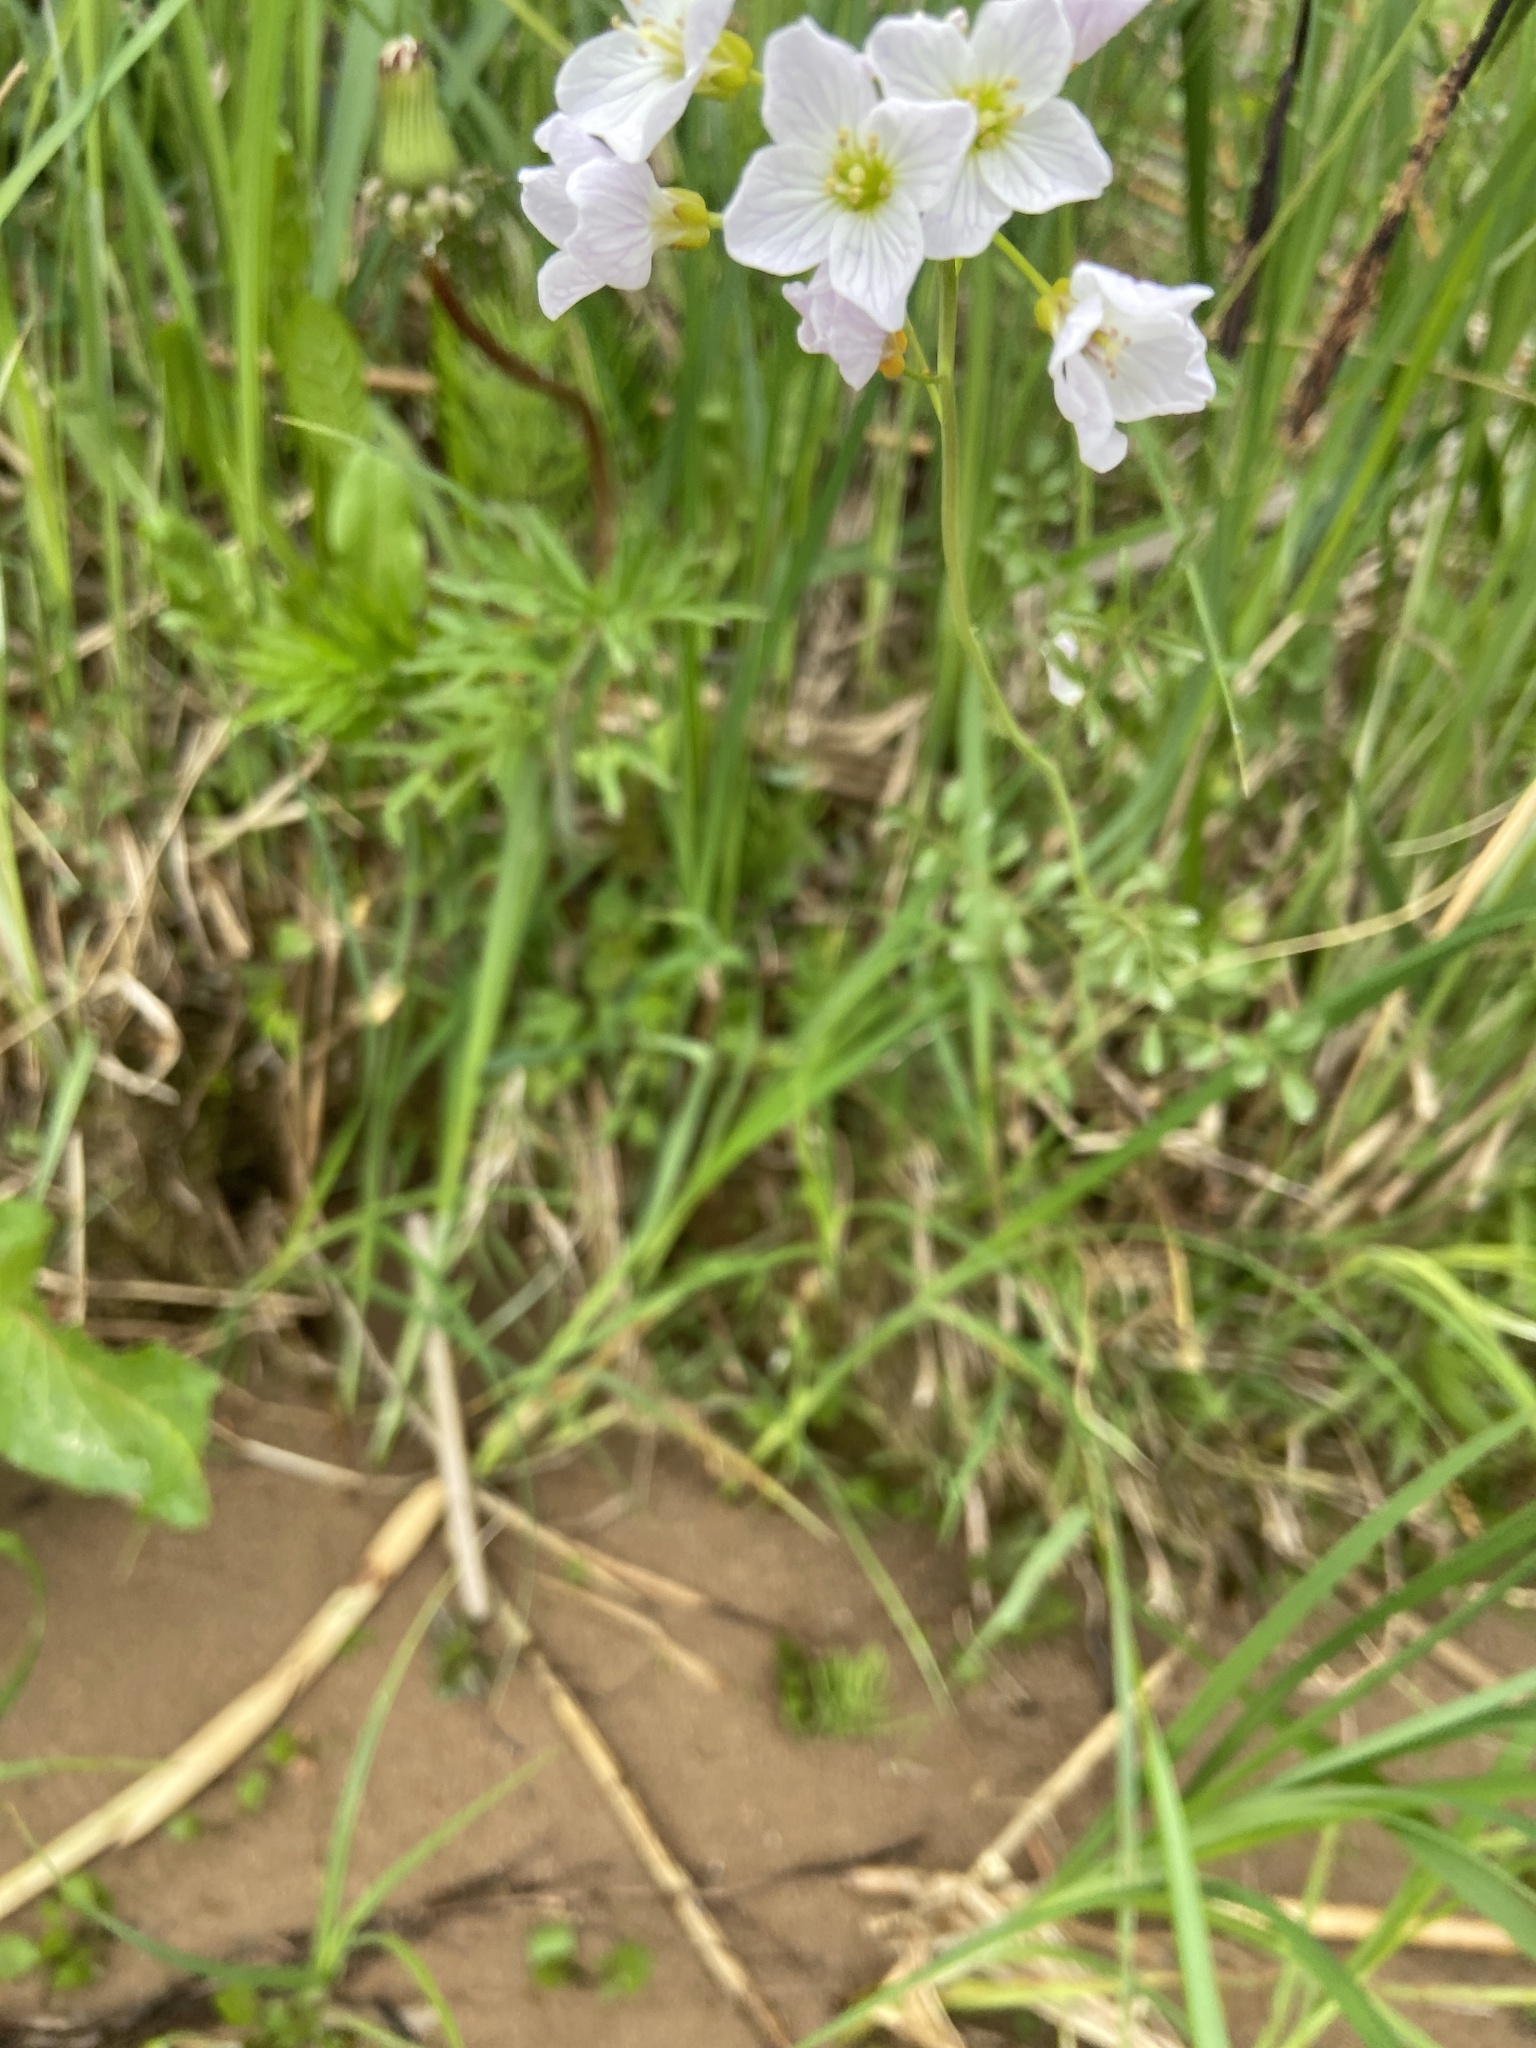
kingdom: Plantae
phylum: Tracheophyta
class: Magnoliopsida
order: Brassicales
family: Brassicaceae
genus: Cardamine
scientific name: Cardamine dentata
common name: Toothed bittercress
